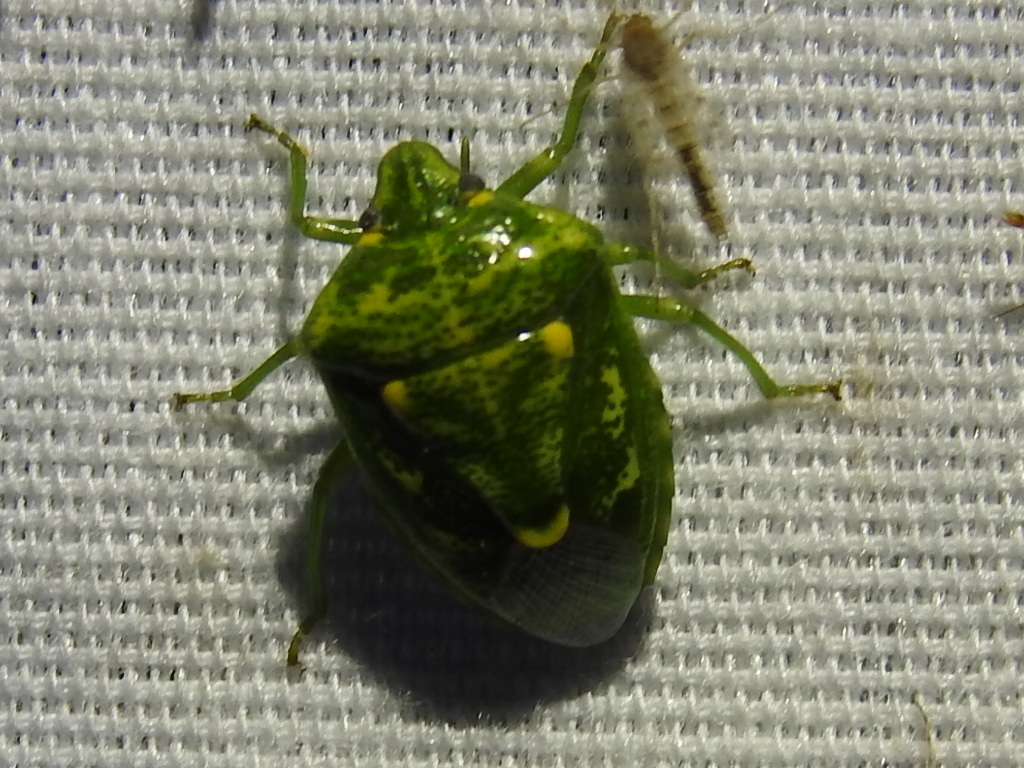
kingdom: Animalia
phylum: Arthropoda
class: Insecta
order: Hemiptera
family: Pentatomidae
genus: Banasa
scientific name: Banasa euchlora
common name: Cedar berry bug
